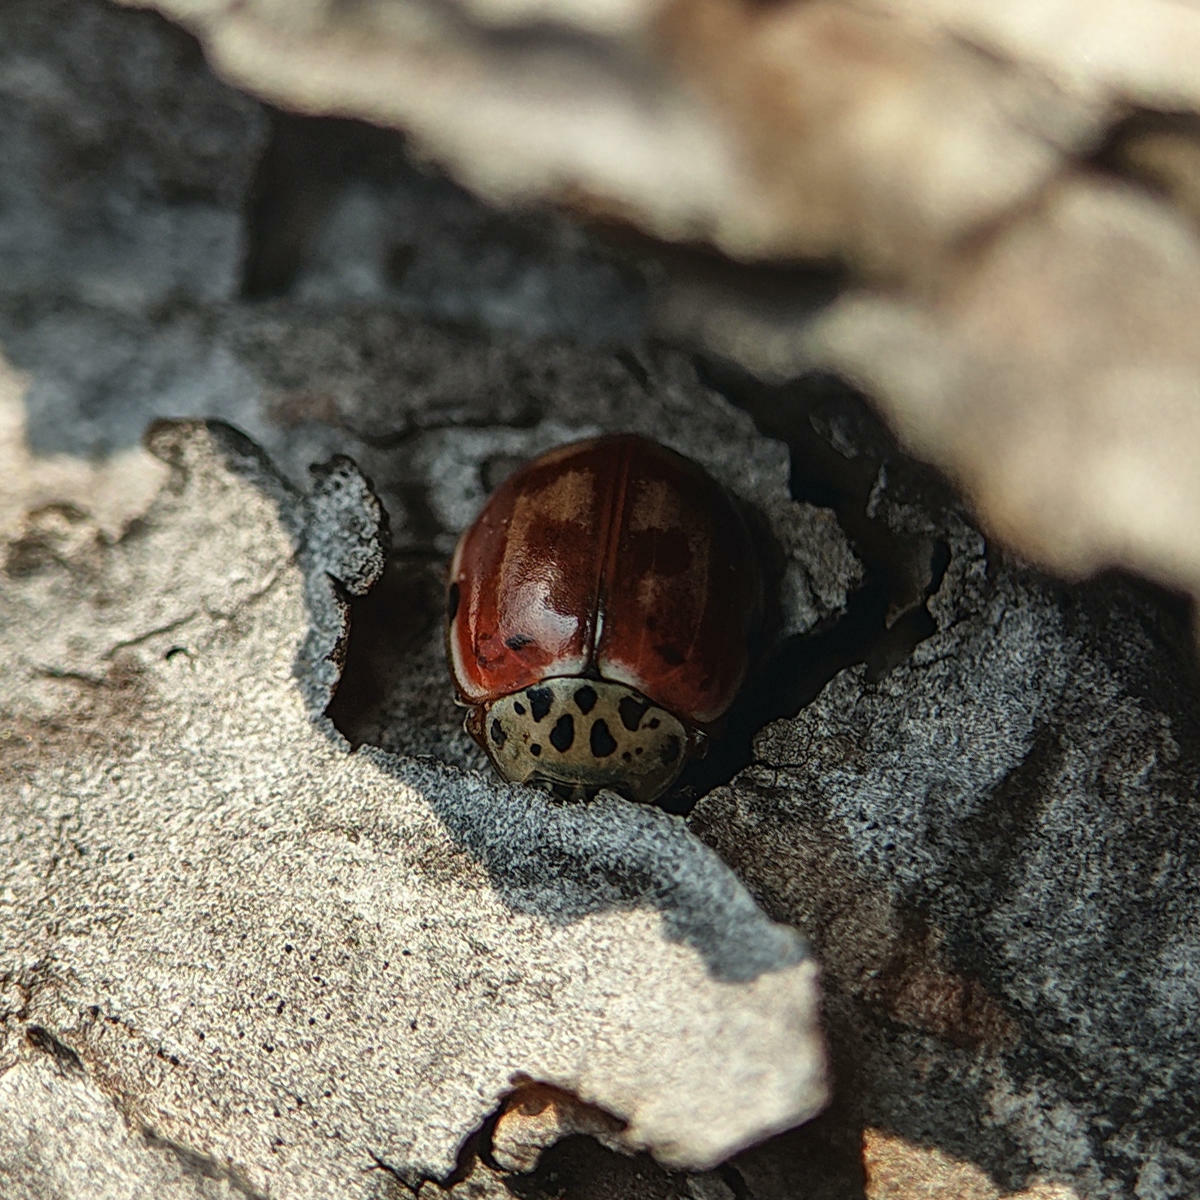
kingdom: Animalia
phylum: Arthropoda
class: Insecta
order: Coleoptera
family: Coccinellidae
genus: Harmonia
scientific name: Harmonia quadripunctata
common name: Cream-streaked ladybird
